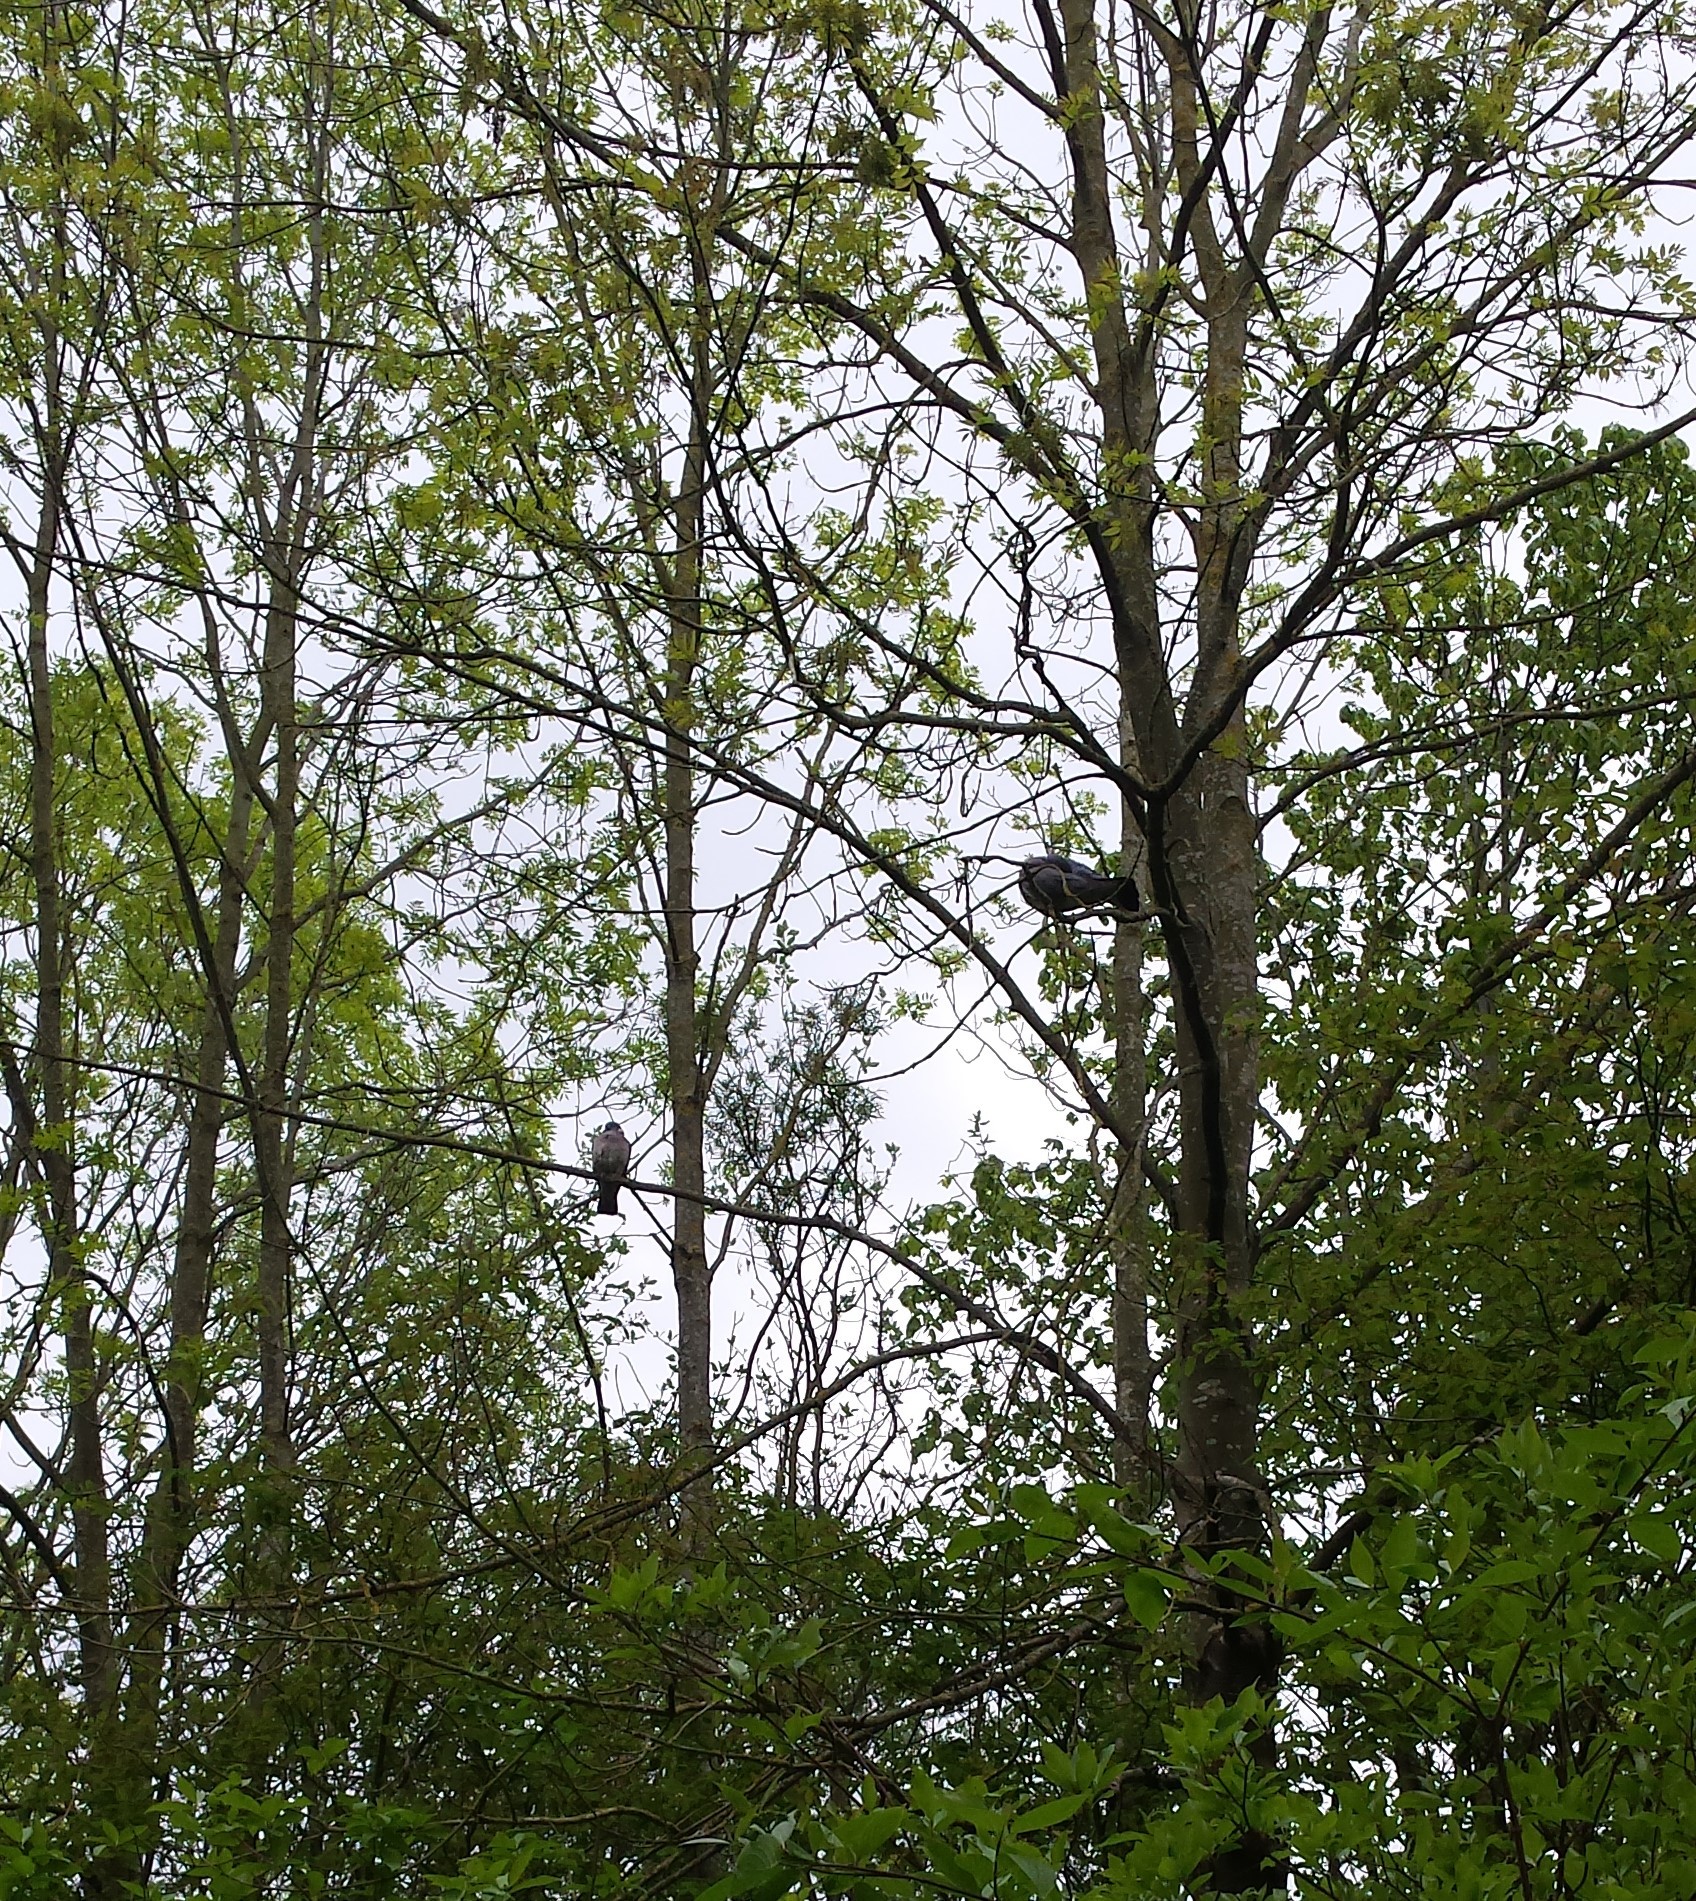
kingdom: Animalia
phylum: Chordata
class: Aves
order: Columbiformes
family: Columbidae
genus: Columba
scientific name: Columba palumbus
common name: Common wood pigeon
